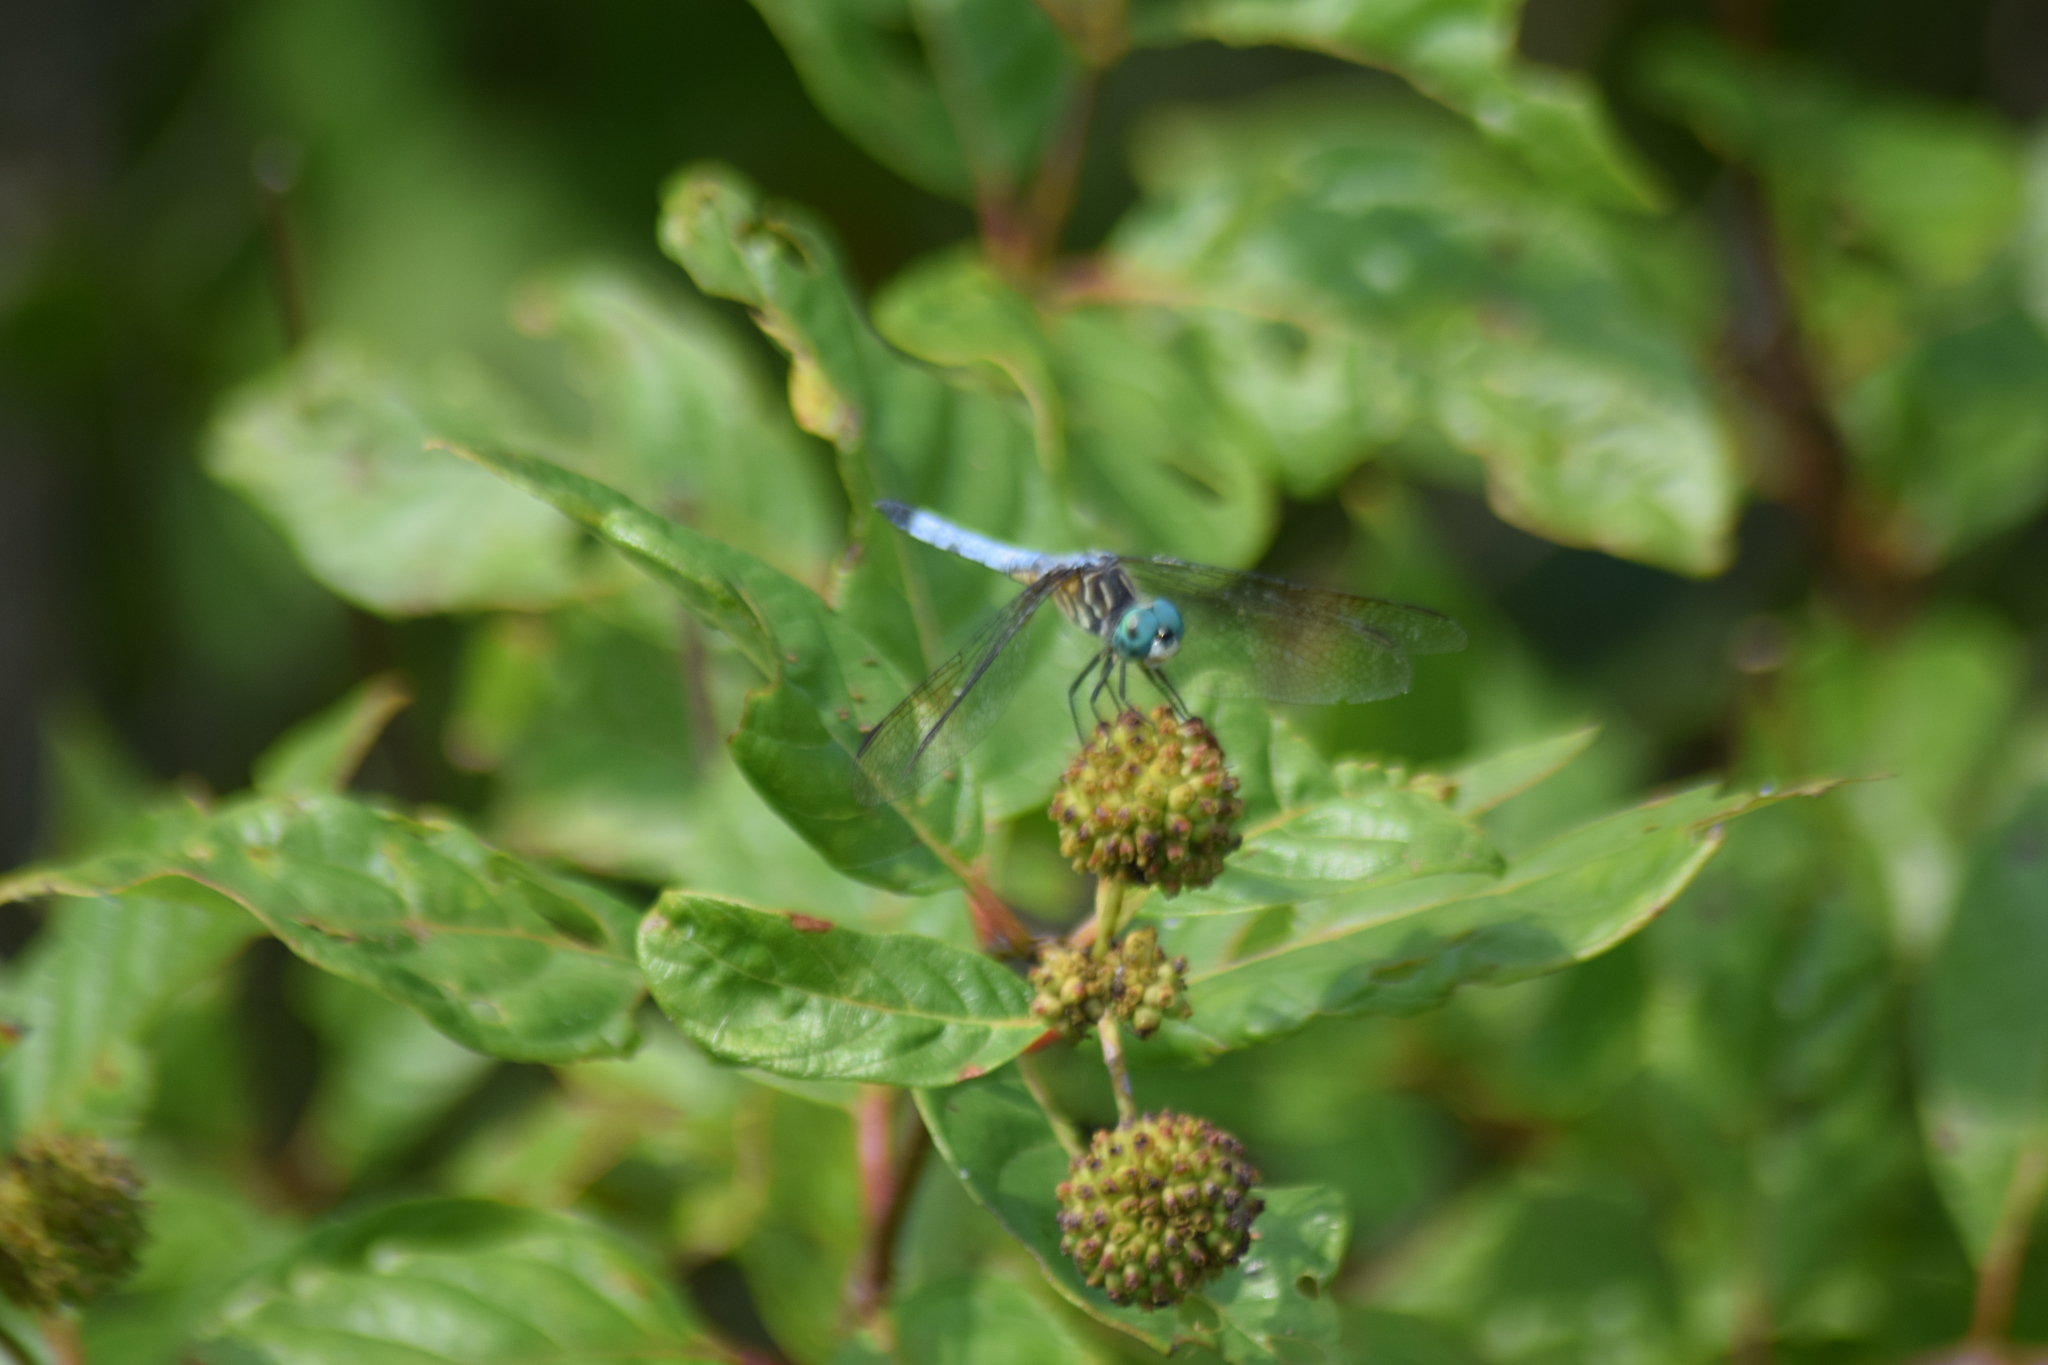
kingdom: Animalia
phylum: Arthropoda
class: Insecta
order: Odonata
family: Libellulidae
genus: Pachydiplax
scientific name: Pachydiplax longipennis
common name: Blue dasher
